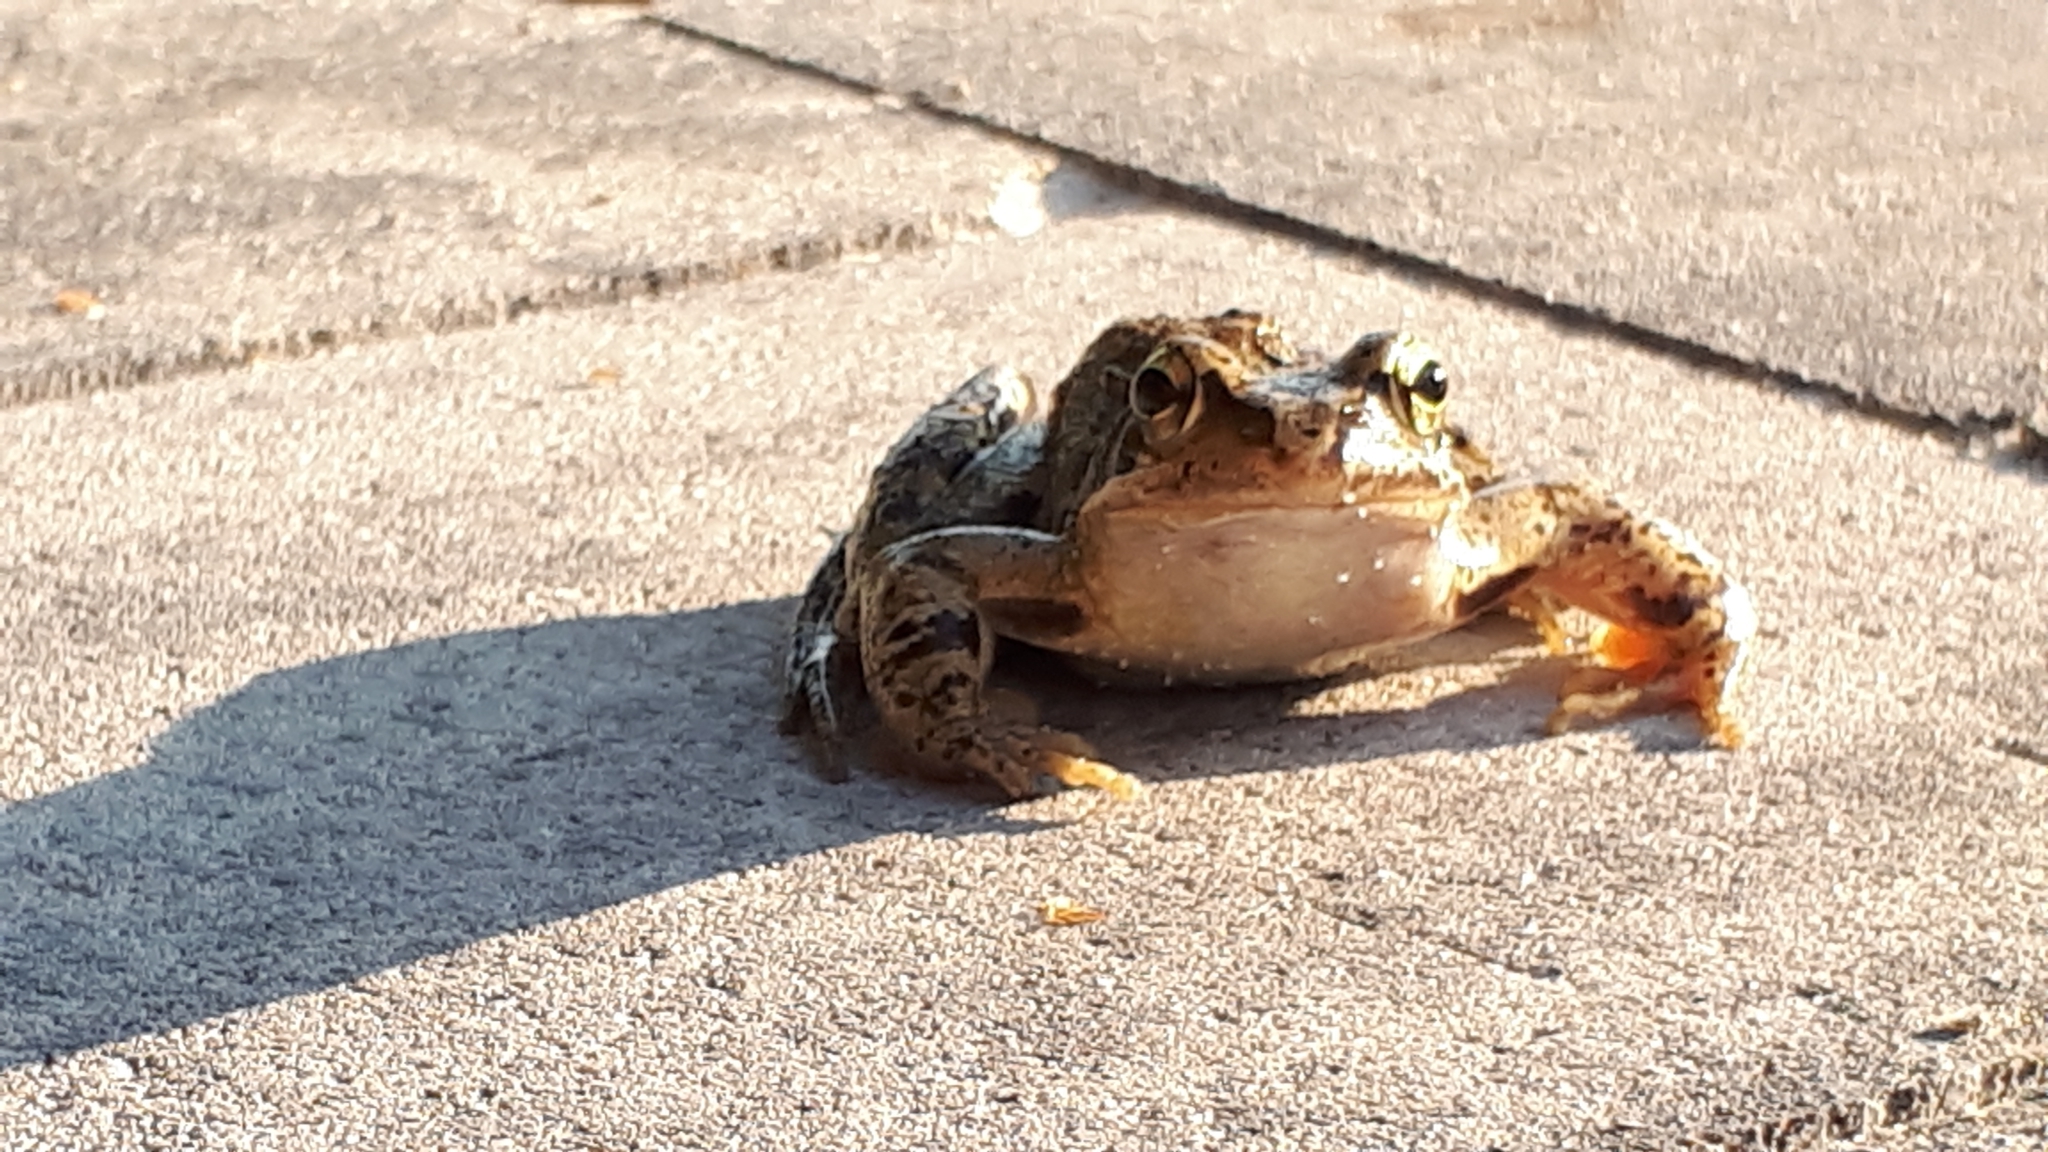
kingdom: Animalia
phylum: Chordata
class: Amphibia
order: Anura
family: Ranidae
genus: Rana
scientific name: Rana temporaria
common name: Common frog
